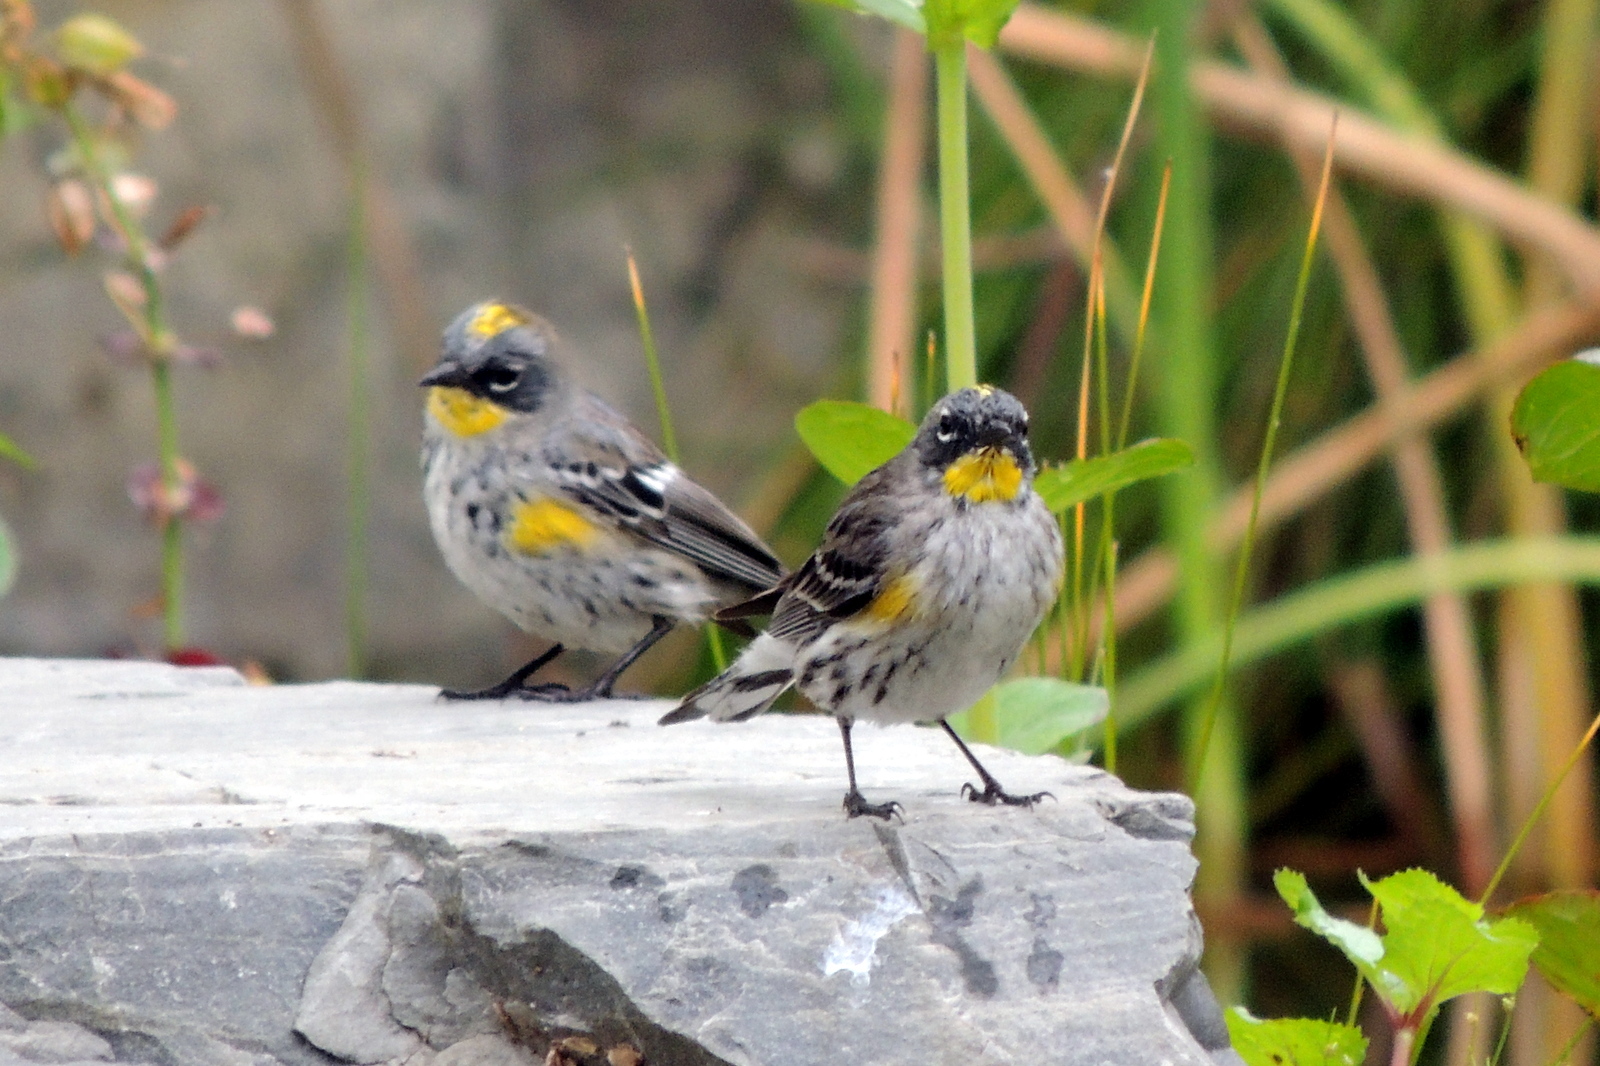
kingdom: Animalia
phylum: Chordata
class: Aves
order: Passeriformes
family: Parulidae
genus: Setophaga
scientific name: Setophaga auduboni
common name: Audubon's warbler
